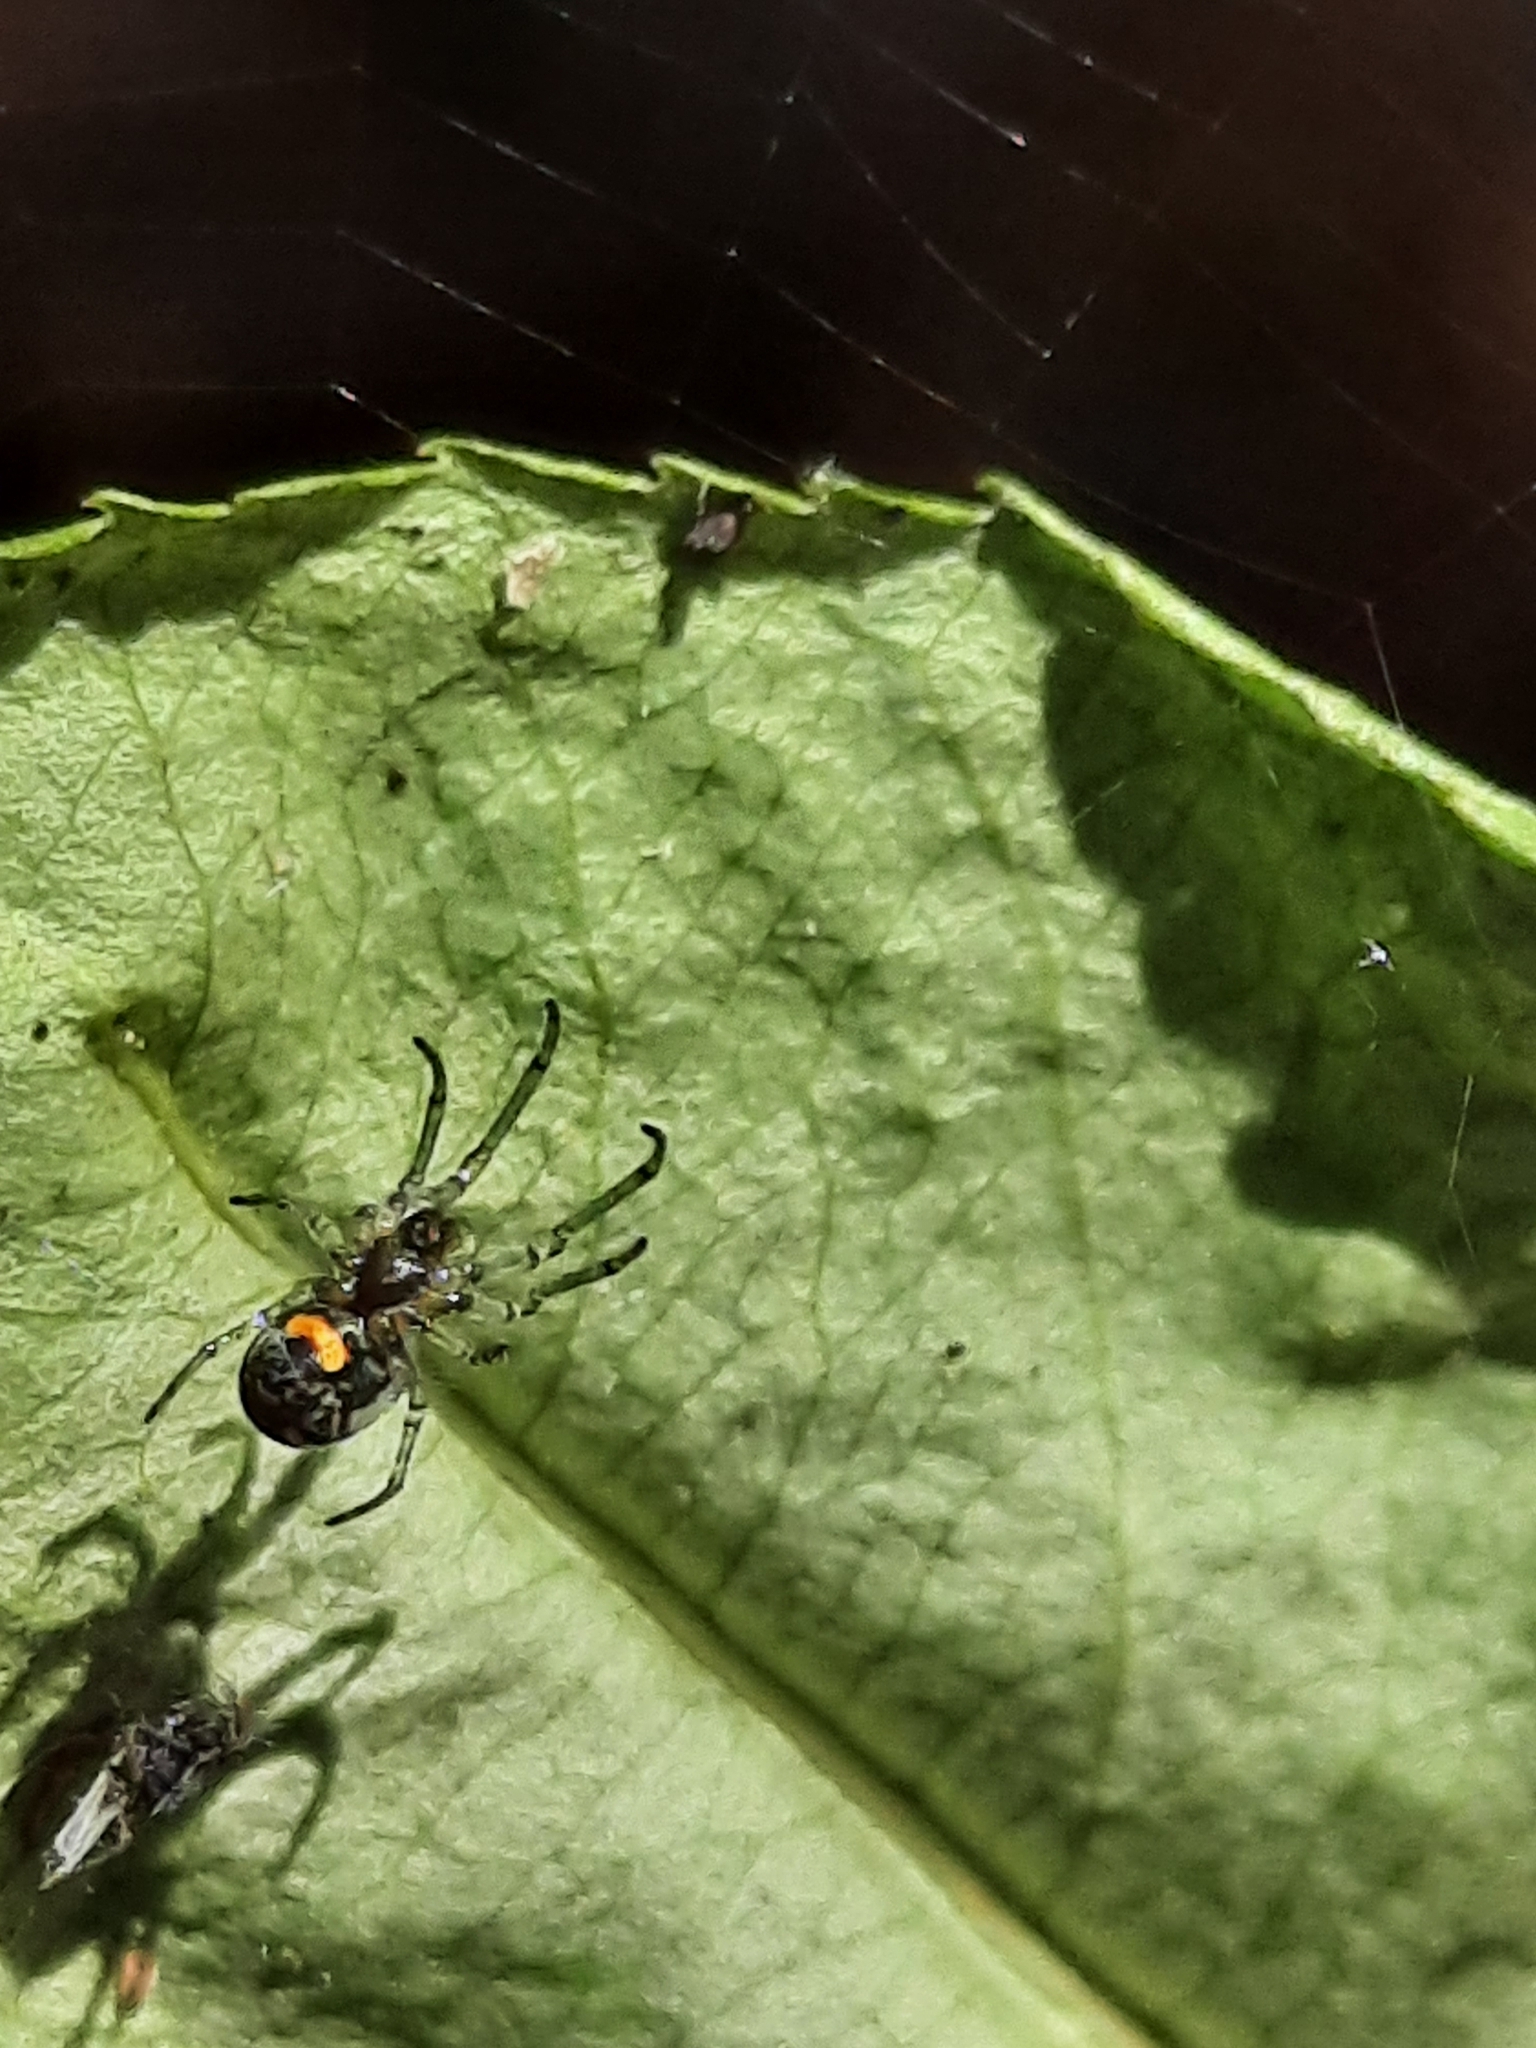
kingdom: Animalia
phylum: Arthropoda
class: Arachnida
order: Araneae
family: Tetragnathidae
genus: Leucauge
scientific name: Leucauge venusta
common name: Longjawed orb weavers
